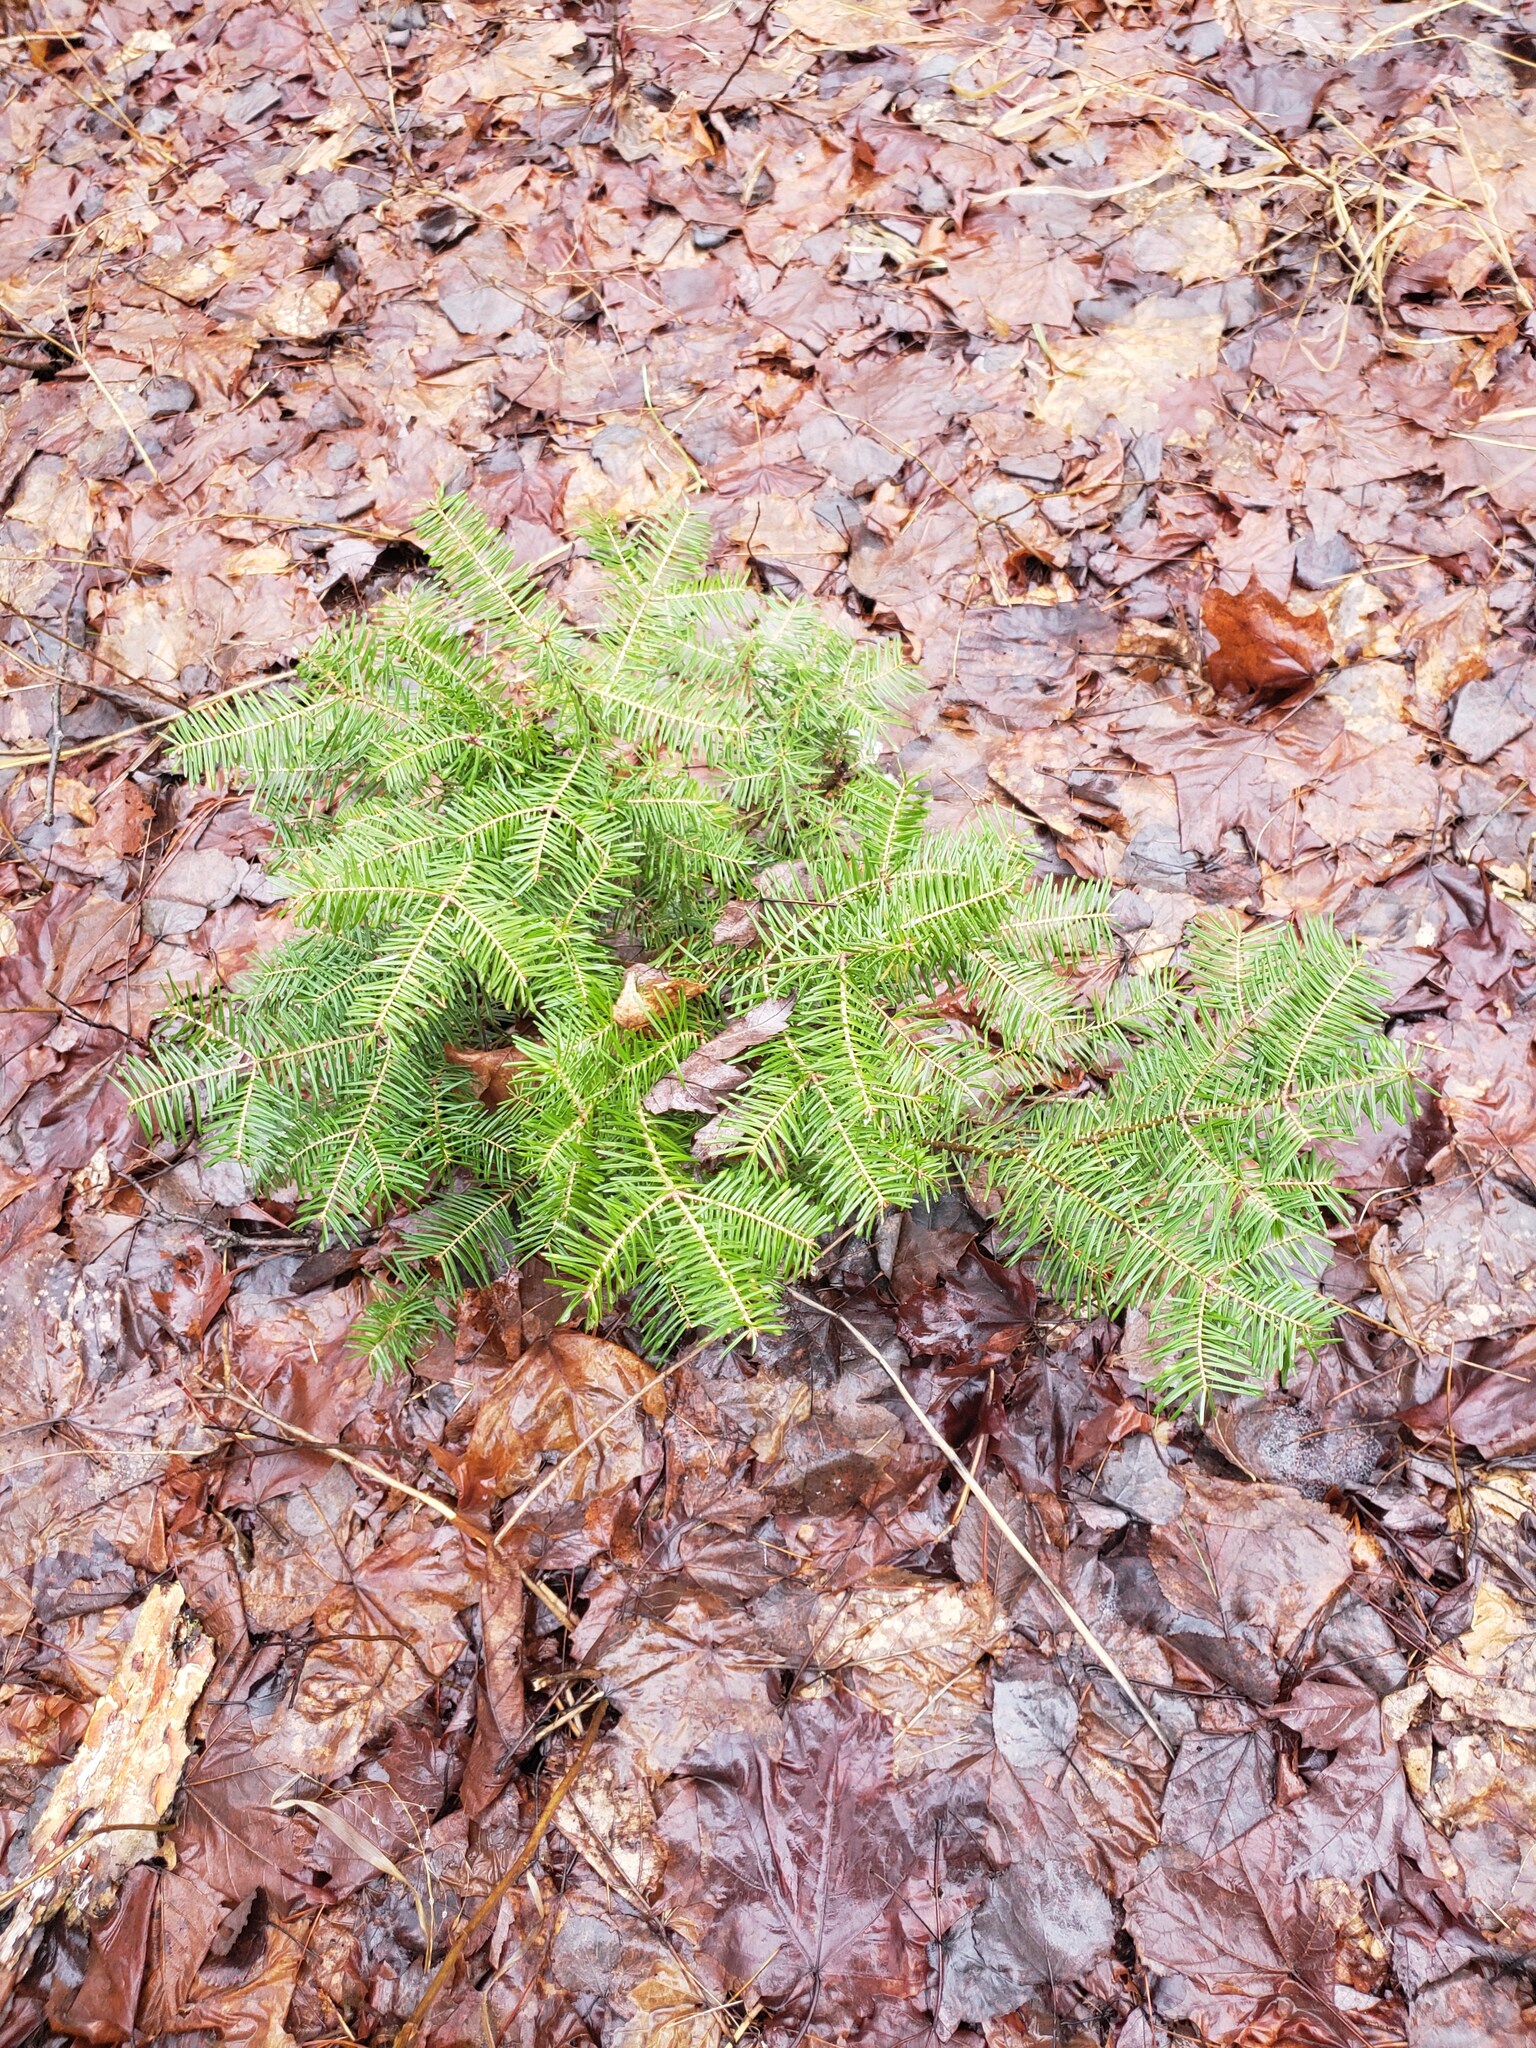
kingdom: Plantae
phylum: Tracheophyta
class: Pinopsida
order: Pinales
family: Pinaceae
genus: Abies
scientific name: Abies balsamea
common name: Balsam fir
